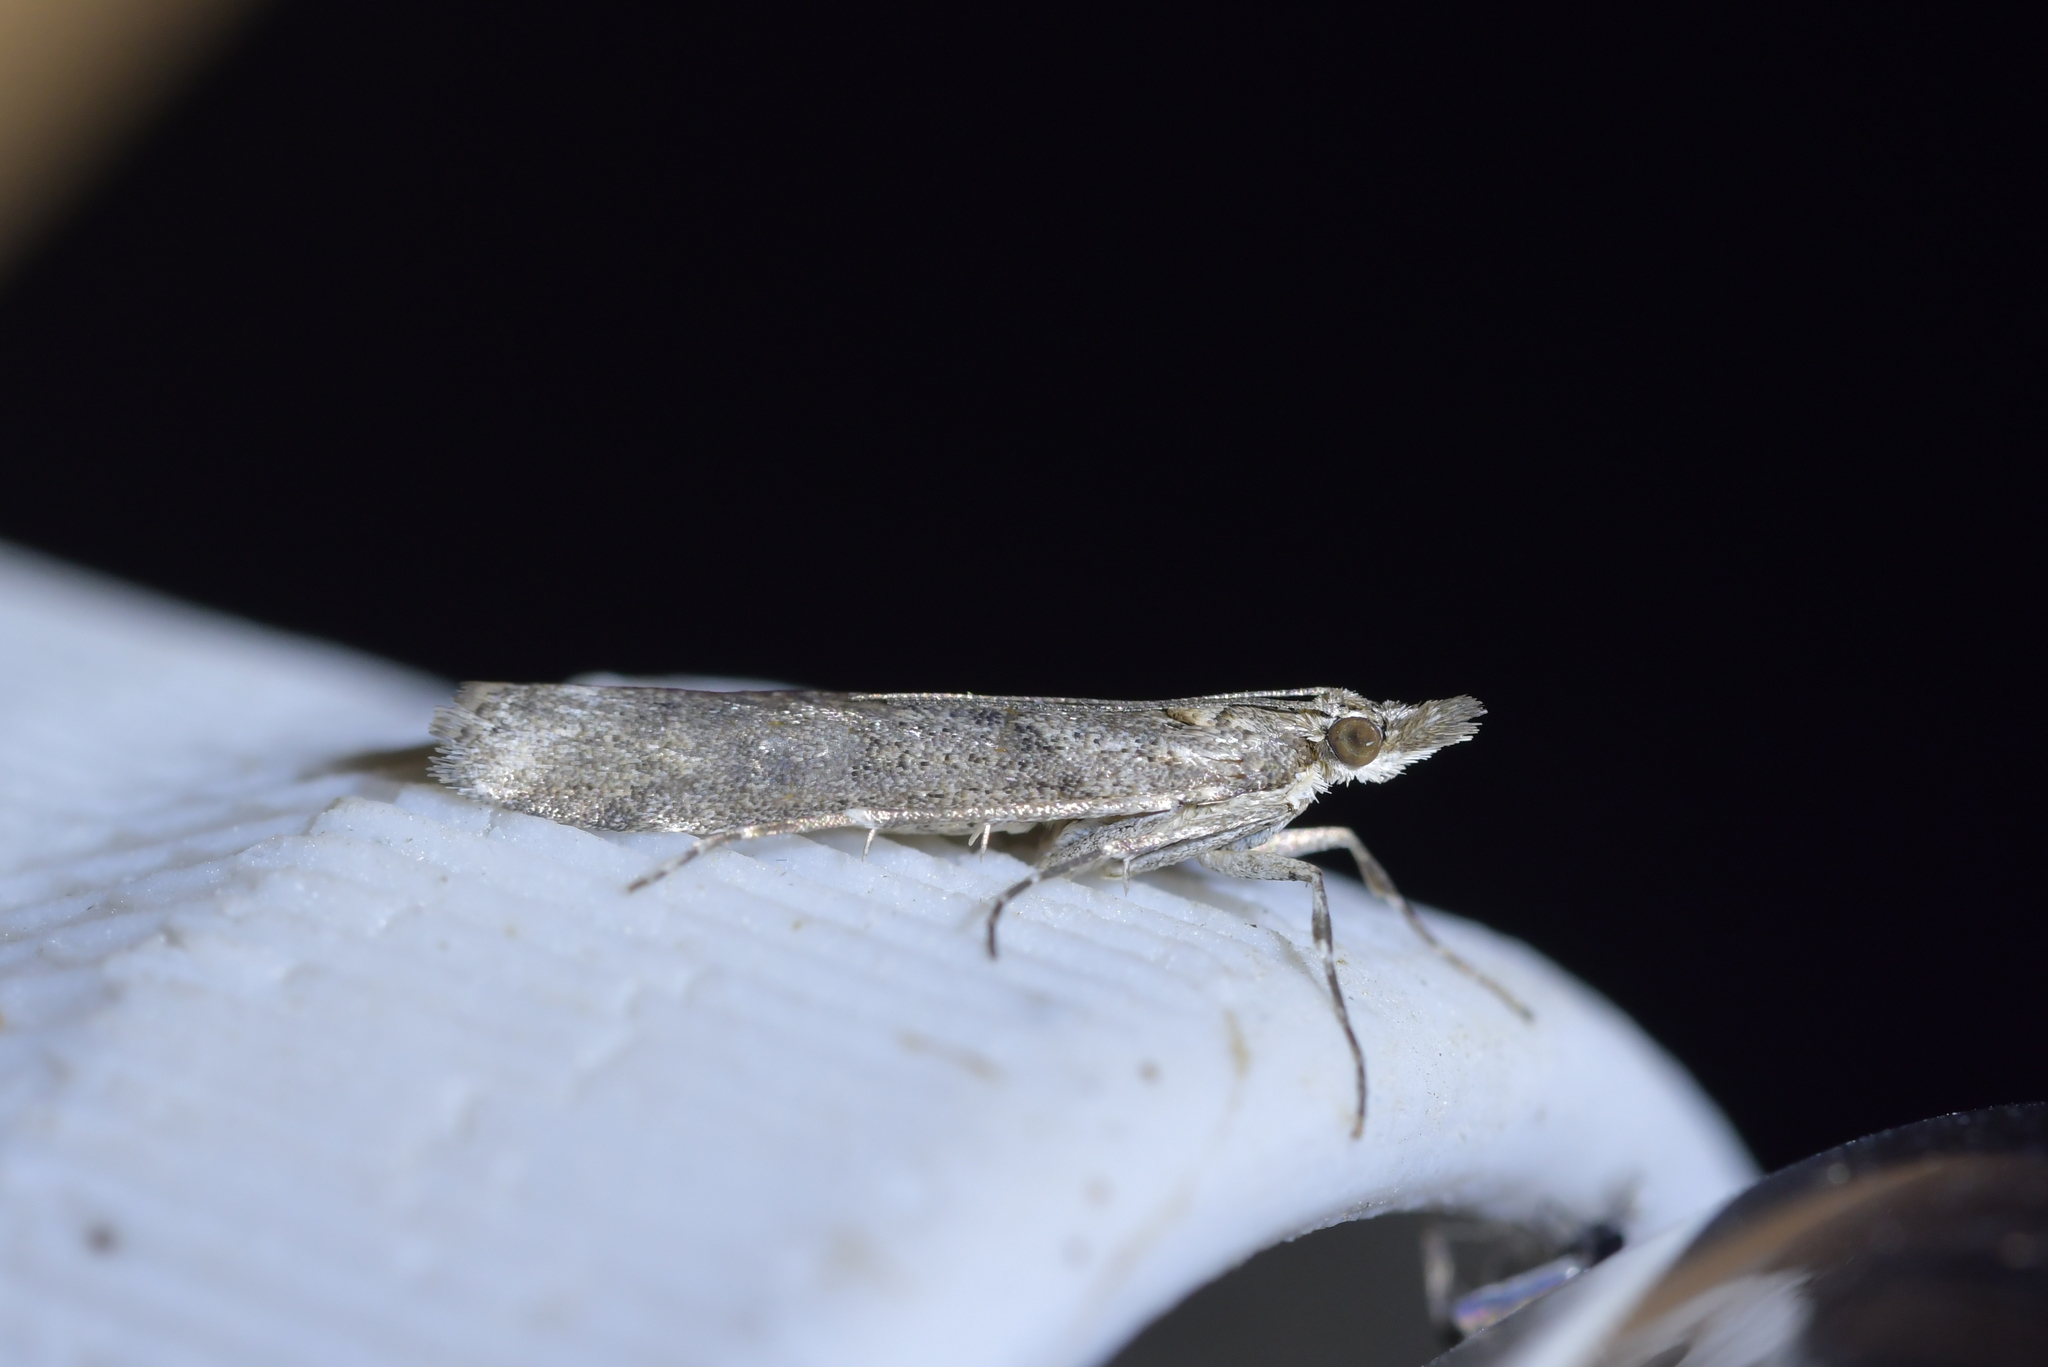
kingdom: Animalia
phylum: Arthropoda
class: Insecta
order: Lepidoptera
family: Crambidae
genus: Eudonia
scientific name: Eudonia leptalea
